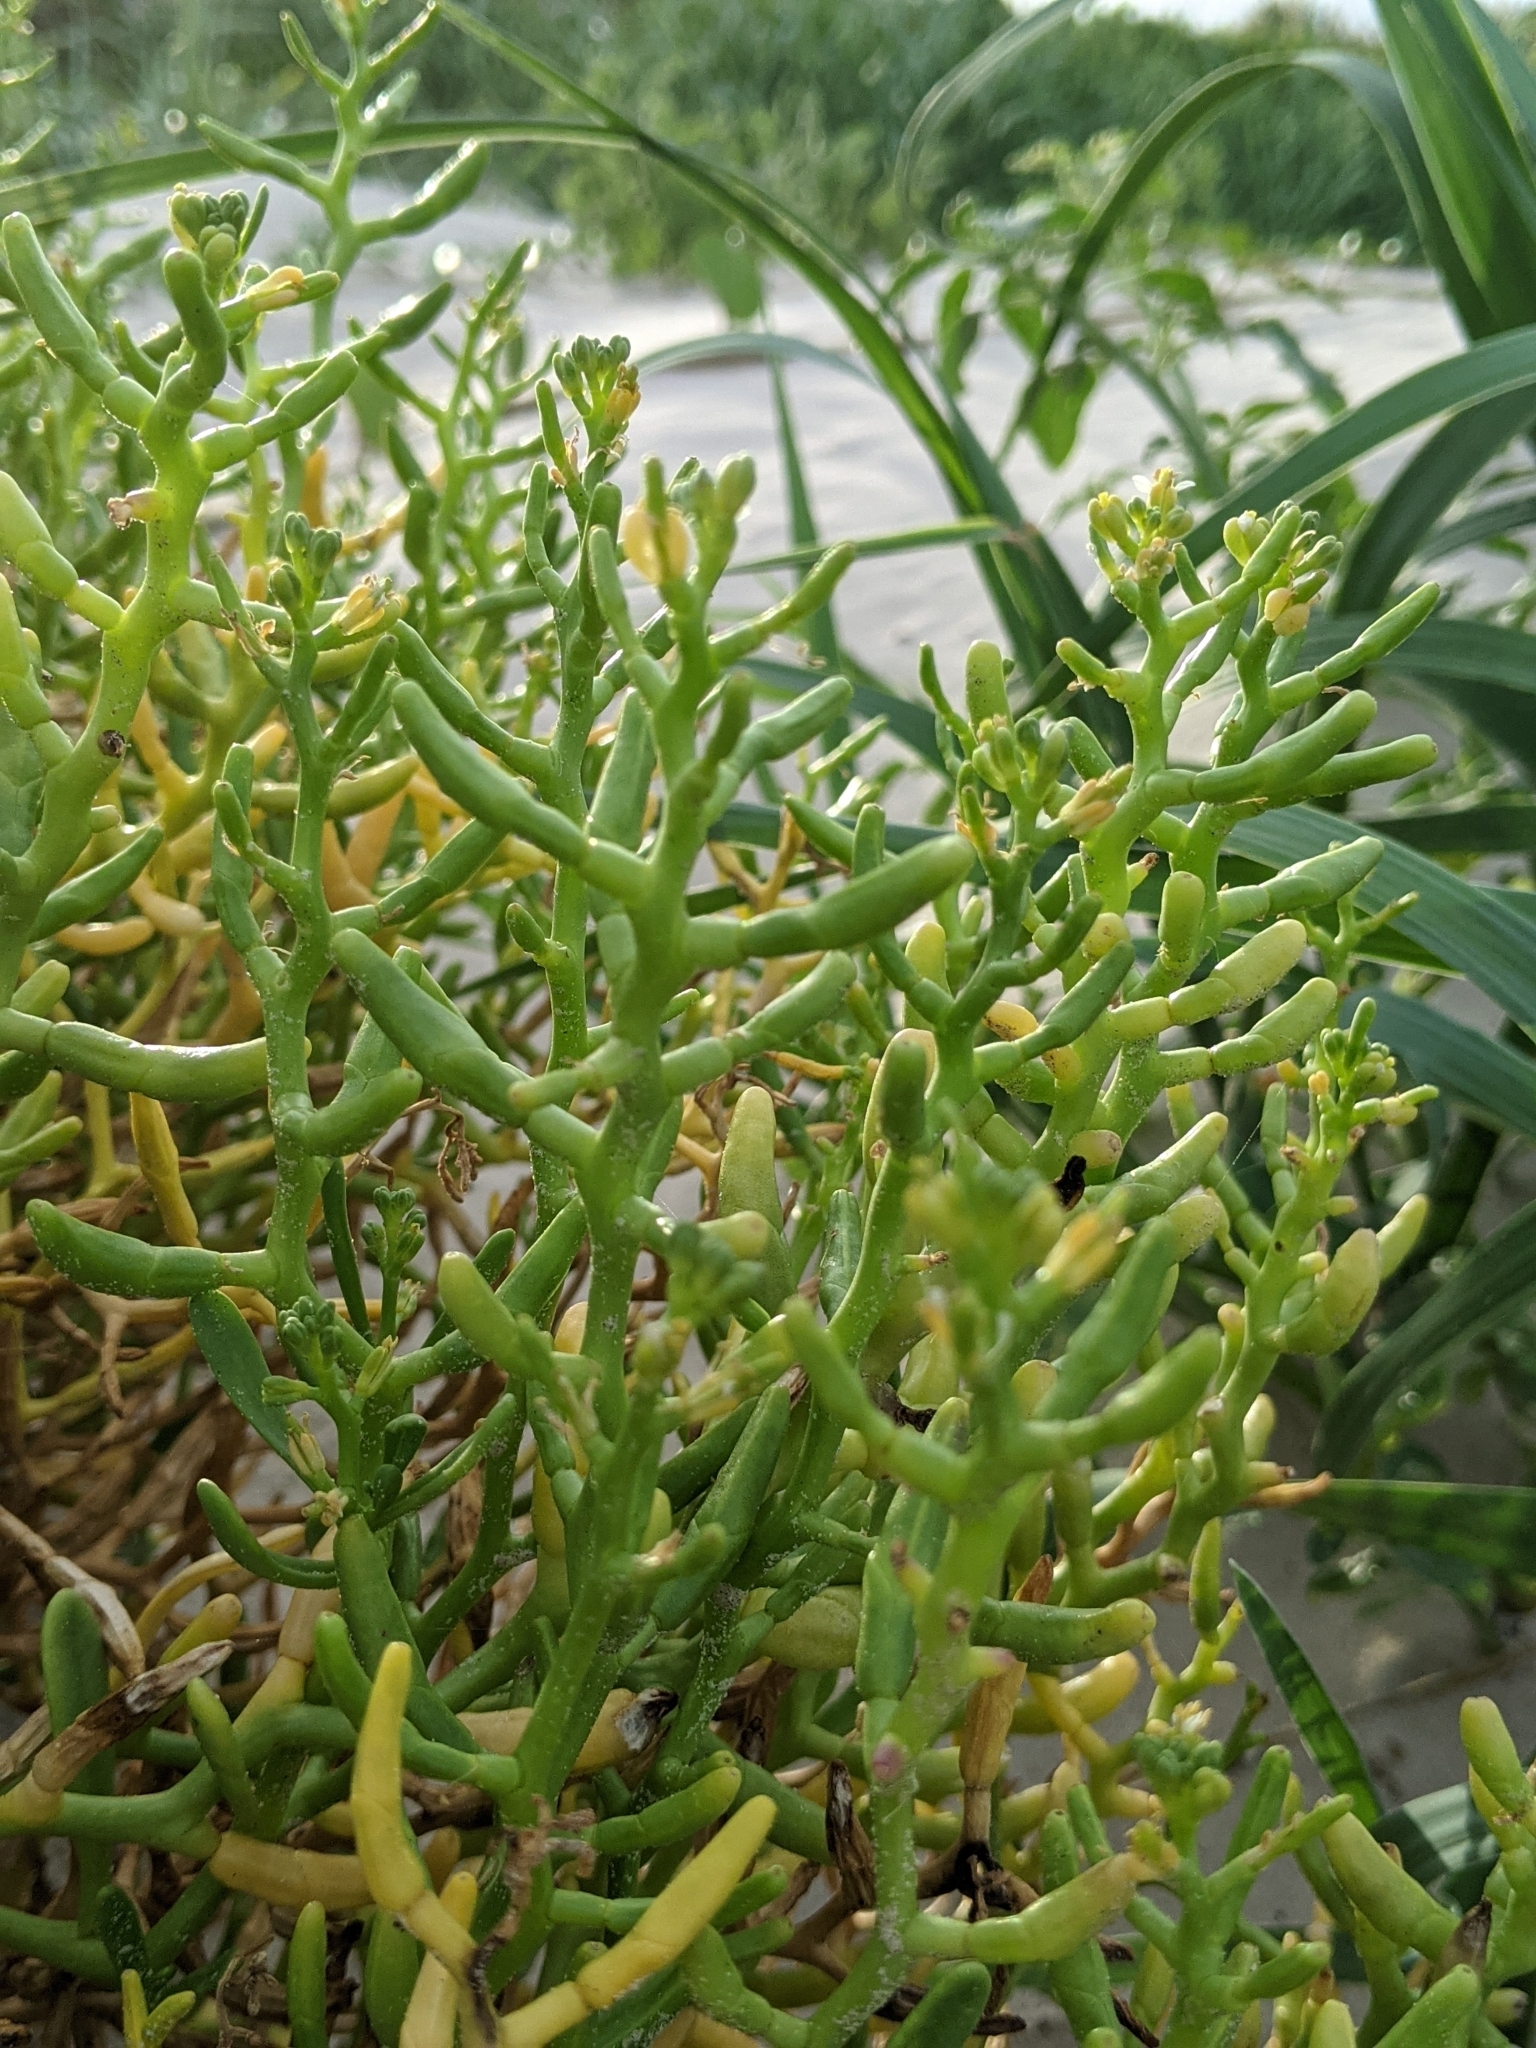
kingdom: Plantae
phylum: Tracheophyta
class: Magnoliopsida
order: Brassicales
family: Brassicaceae
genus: Cakile
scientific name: Cakile geniculata
